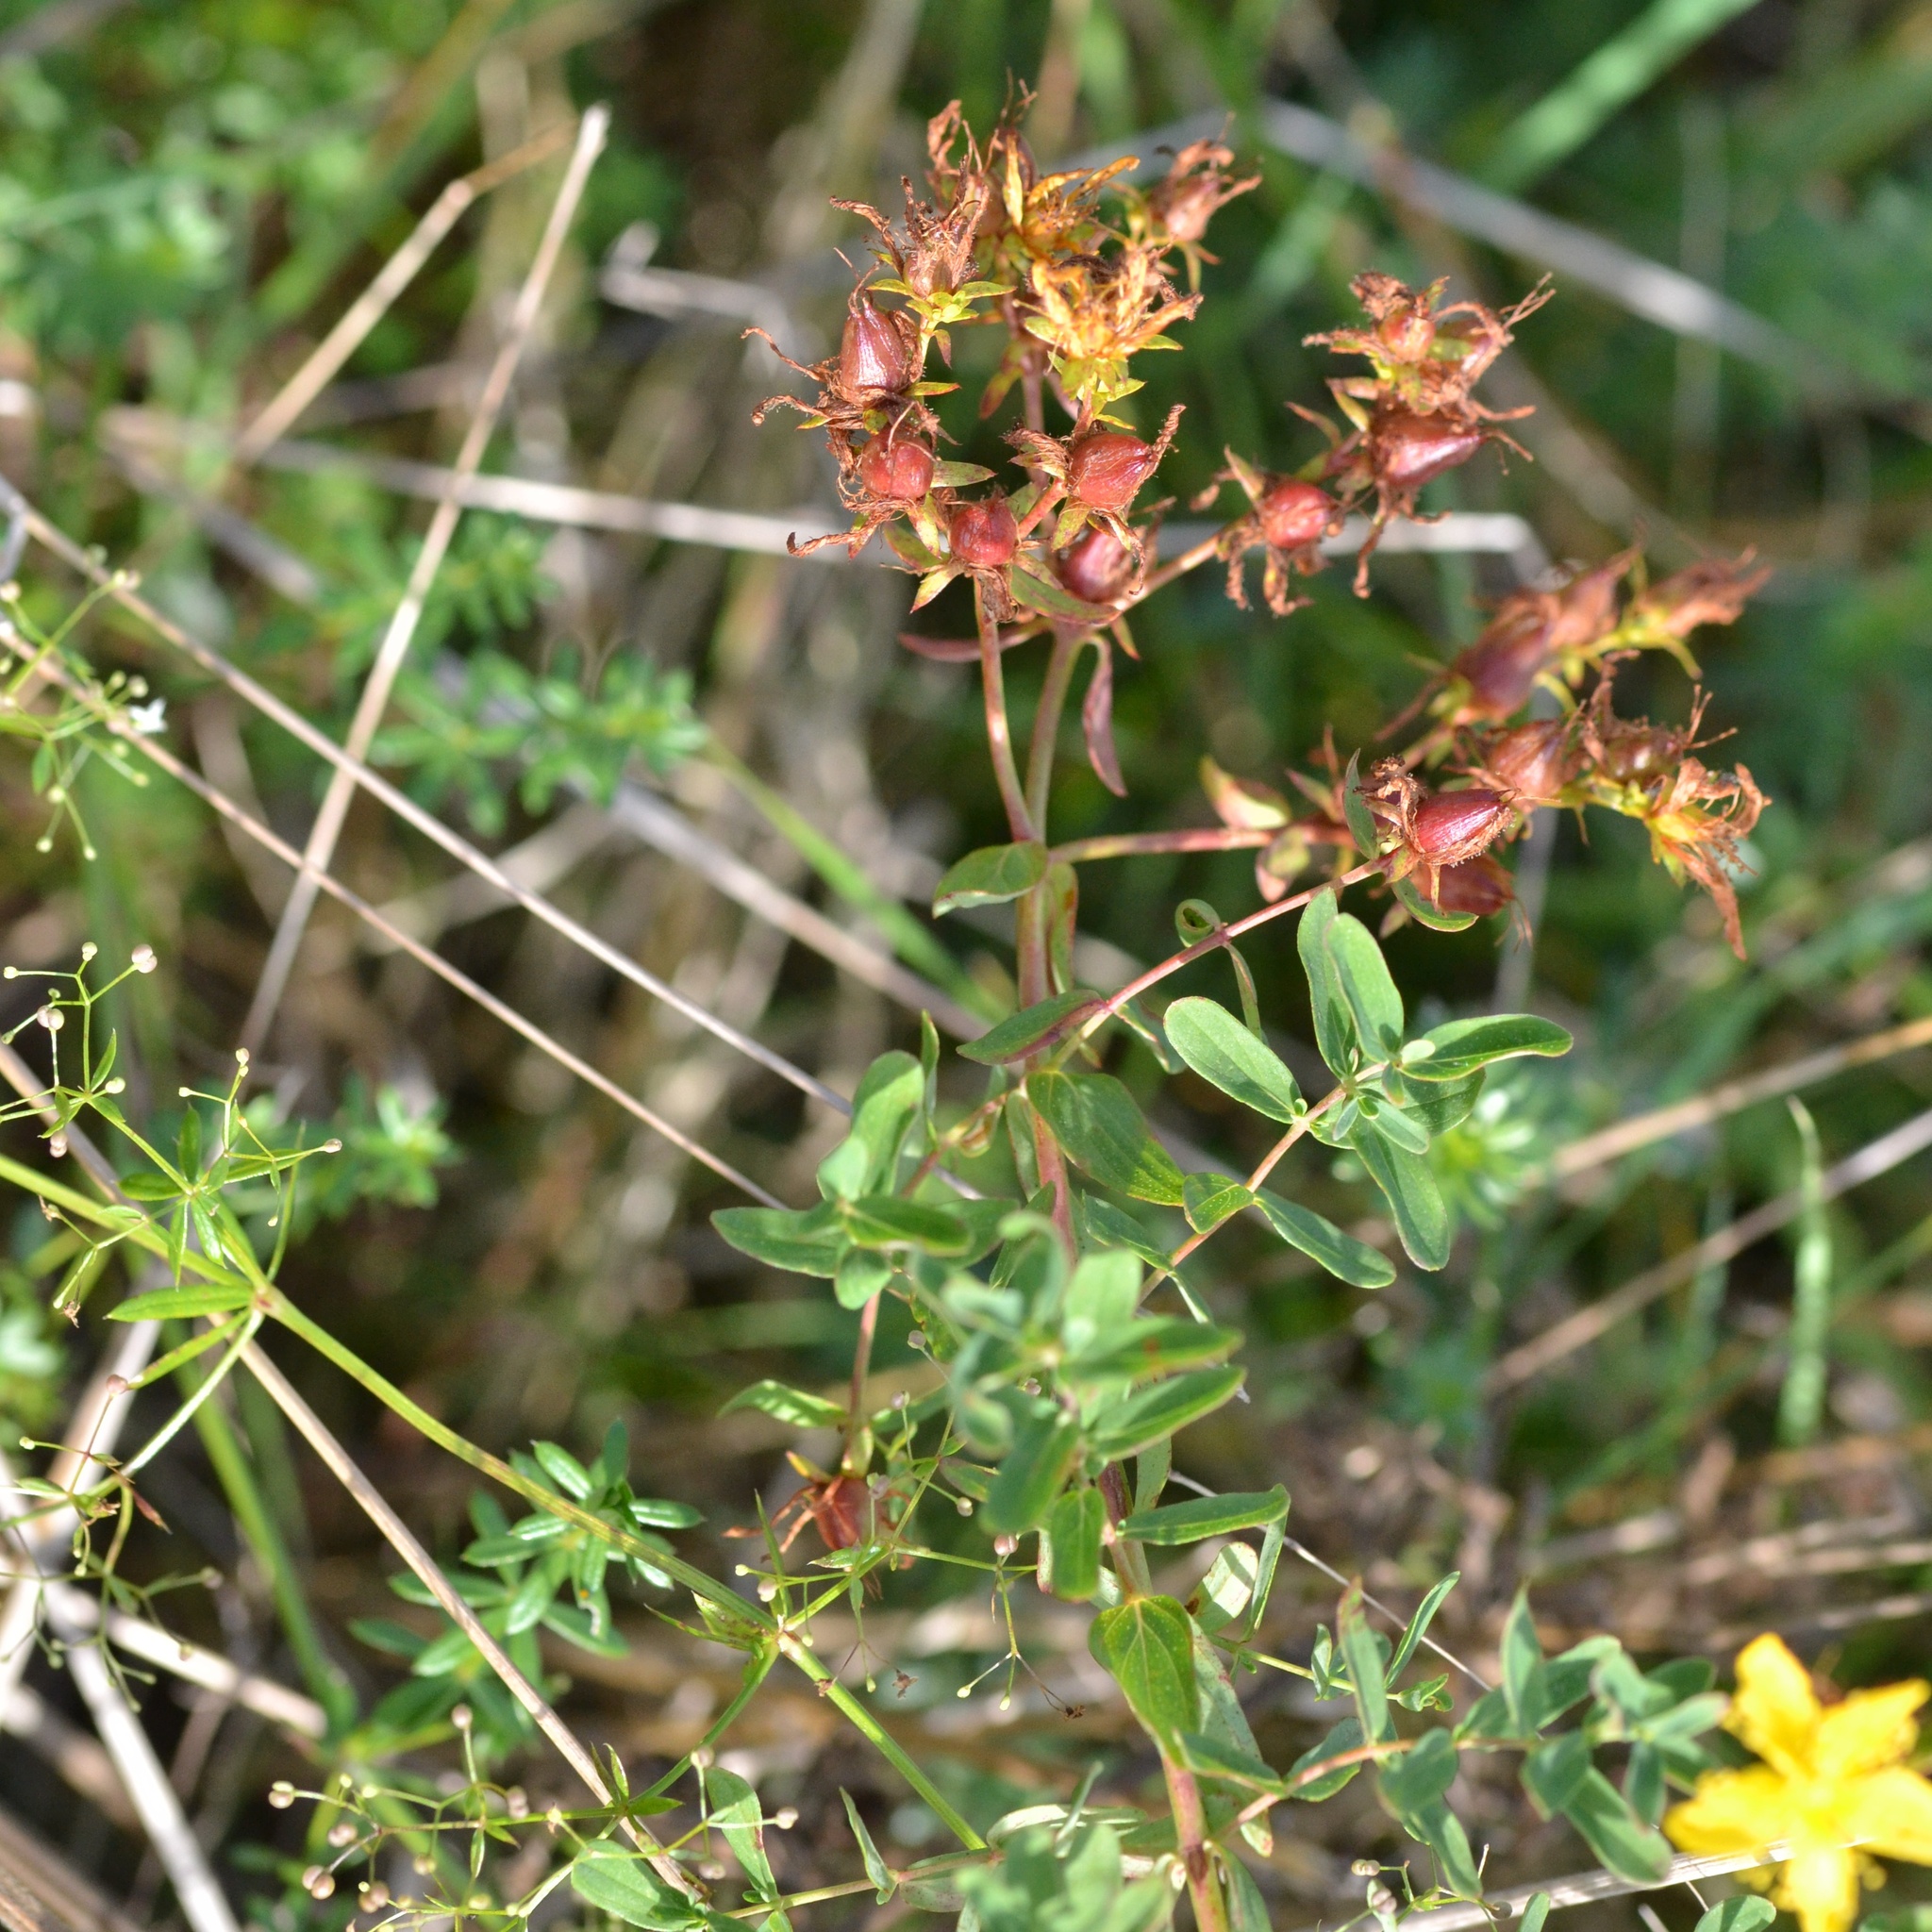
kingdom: Plantae
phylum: Tracheophyta
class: Magnoliopsida
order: Malpighiales
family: Hypericaceae
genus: Hypericum
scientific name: Hypericum perforatum
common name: Common st. johnswort
